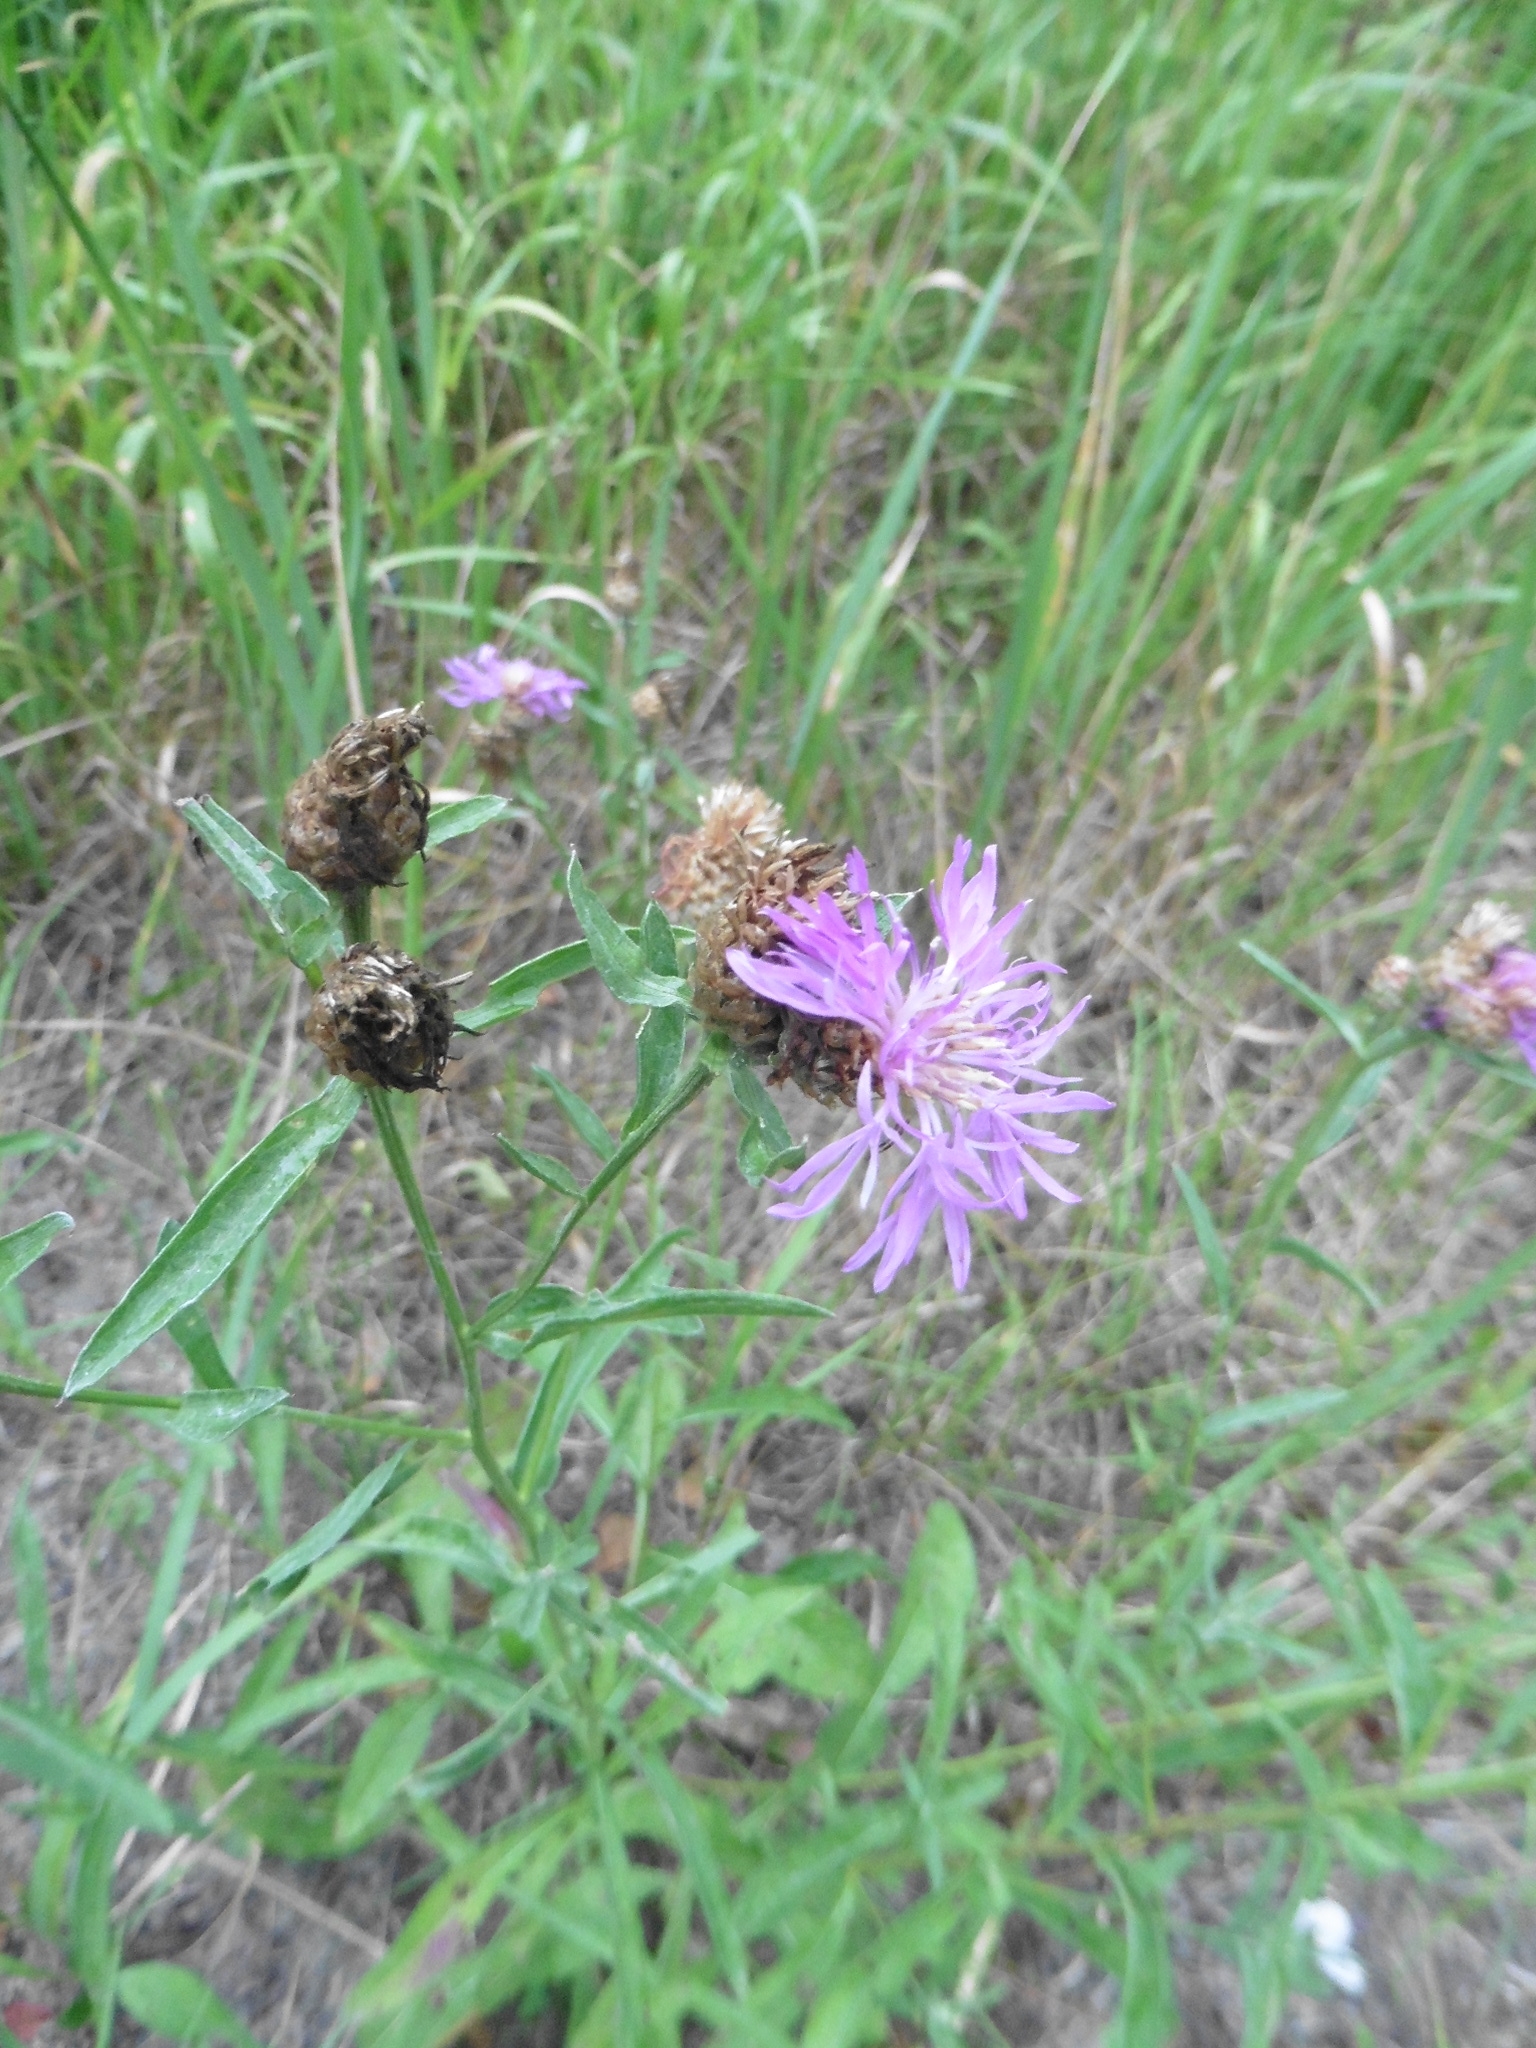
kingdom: Plantae
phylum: Tracheophyta
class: Magnoliopsida
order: Asterales
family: Asteraceae
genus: Centaurea
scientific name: Centaurea jacea
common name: Brown knapweed
